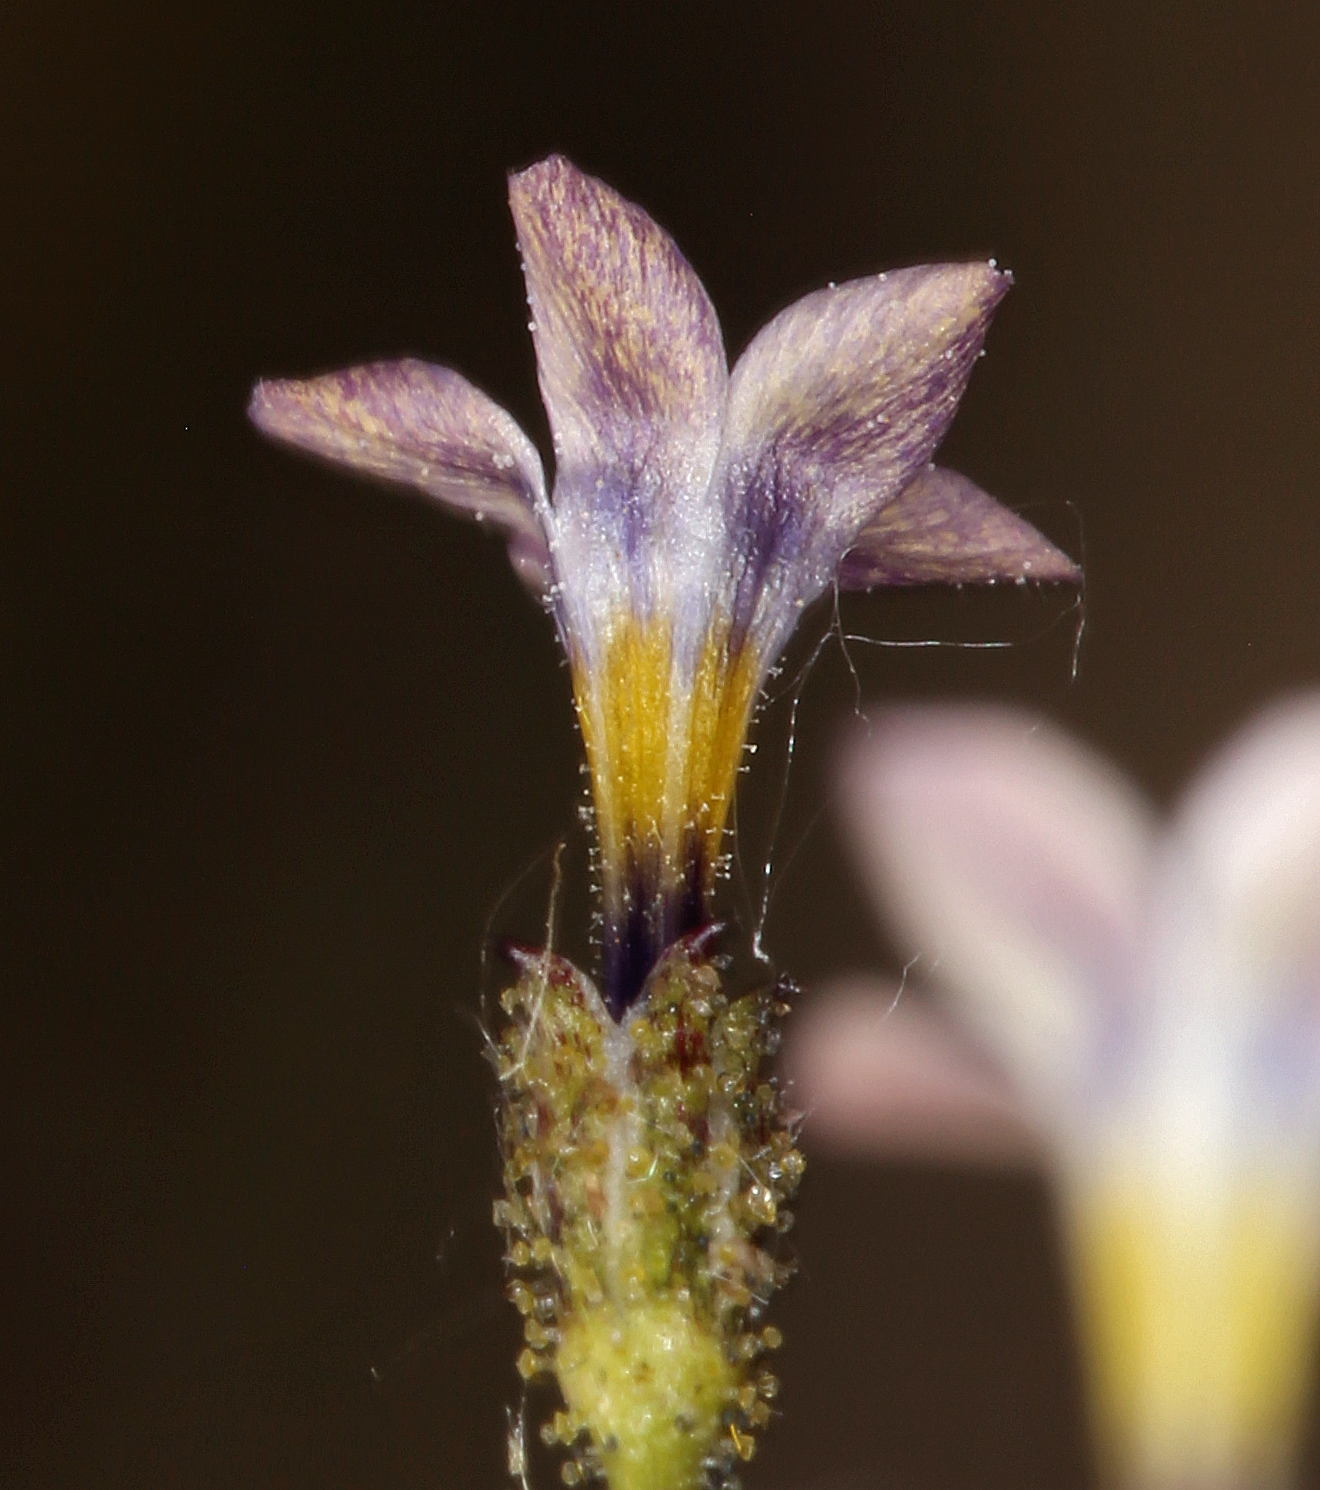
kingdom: Plantae
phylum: Tracheophyta
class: Magnoliopsida
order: Ericales
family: Polemoniaceae
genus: Gilia
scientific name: Gilia sinuata
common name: Rosy gilia
